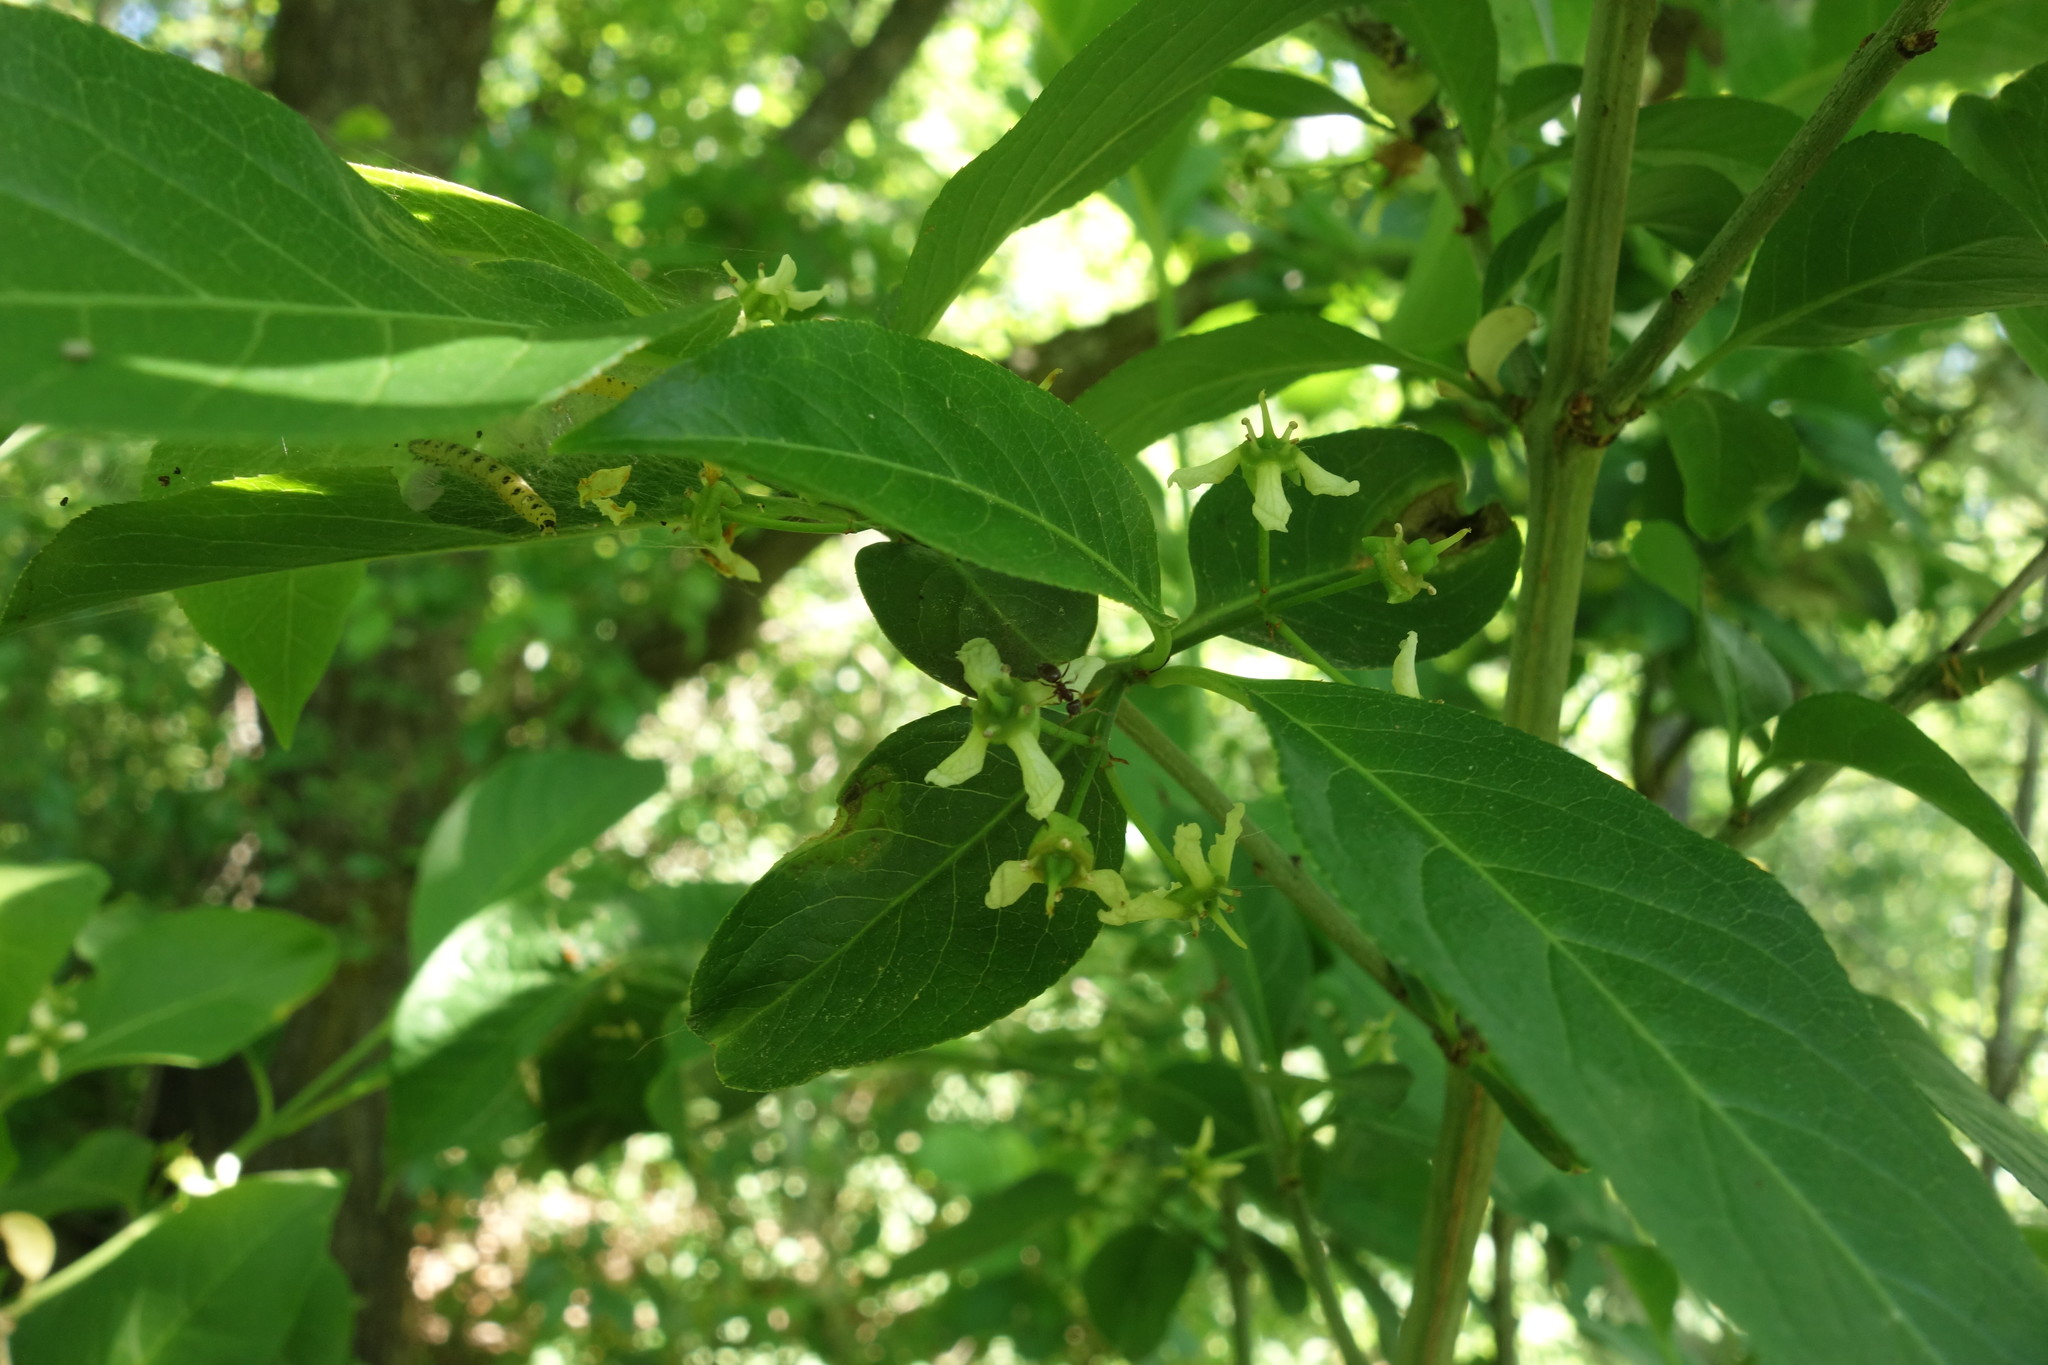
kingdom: Plantae
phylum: Tracheophyta
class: Magnoliopsida
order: Celastrales
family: Celastraceae
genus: Euonymus
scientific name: Euonymus europaeus
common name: Spindle
